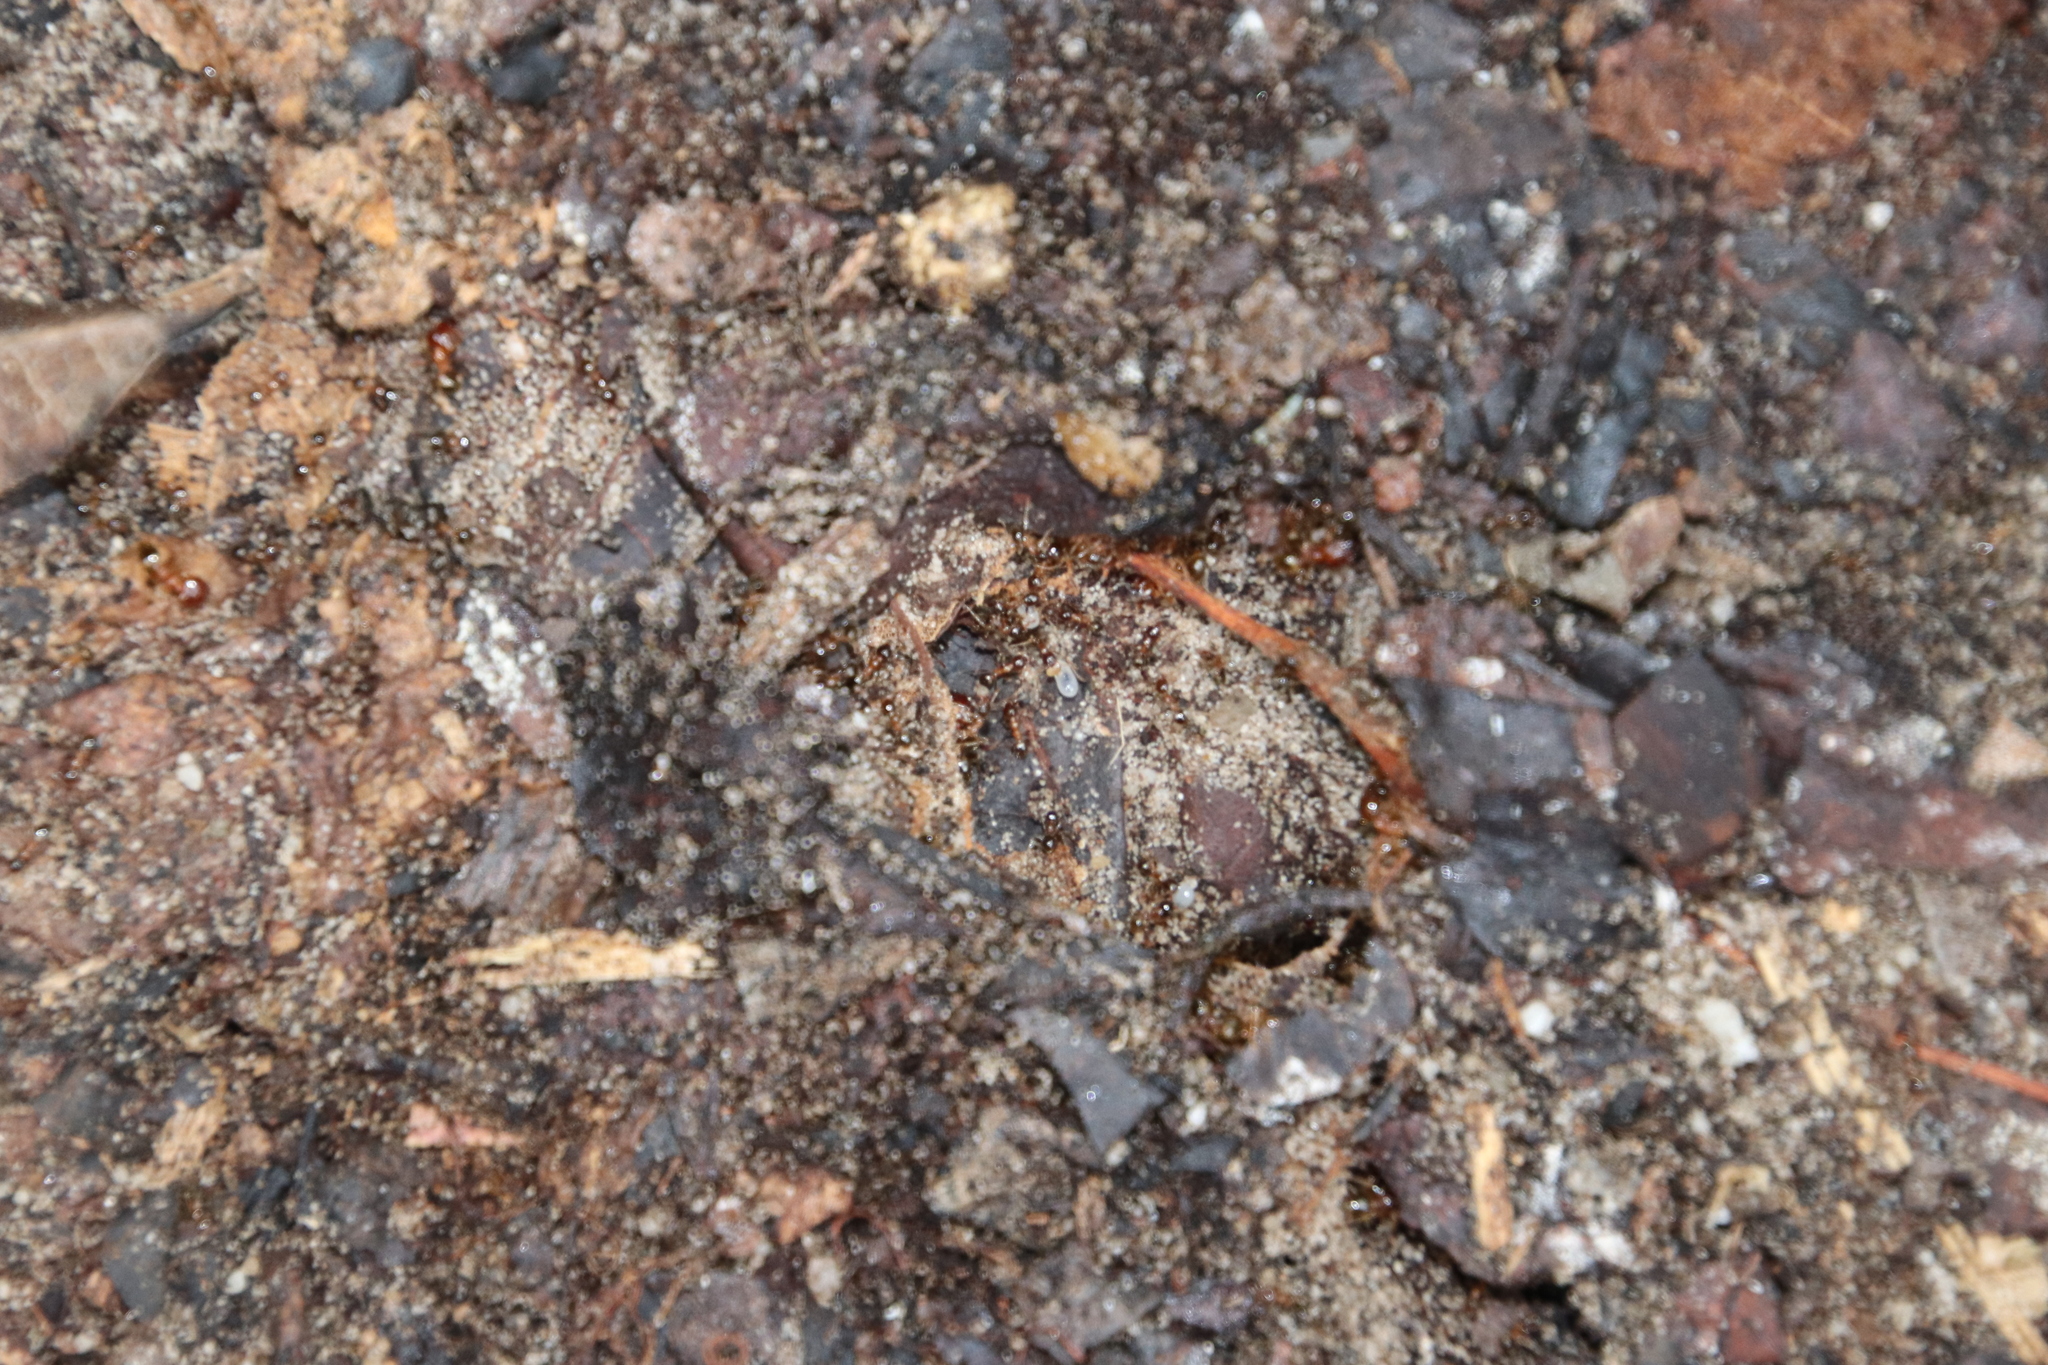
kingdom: Animalia
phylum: Arthropoda
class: Insecta
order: Hymenoptera
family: Formicidae
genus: Pheidole
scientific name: Pheidole megacephala
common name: Bigheaded ant
